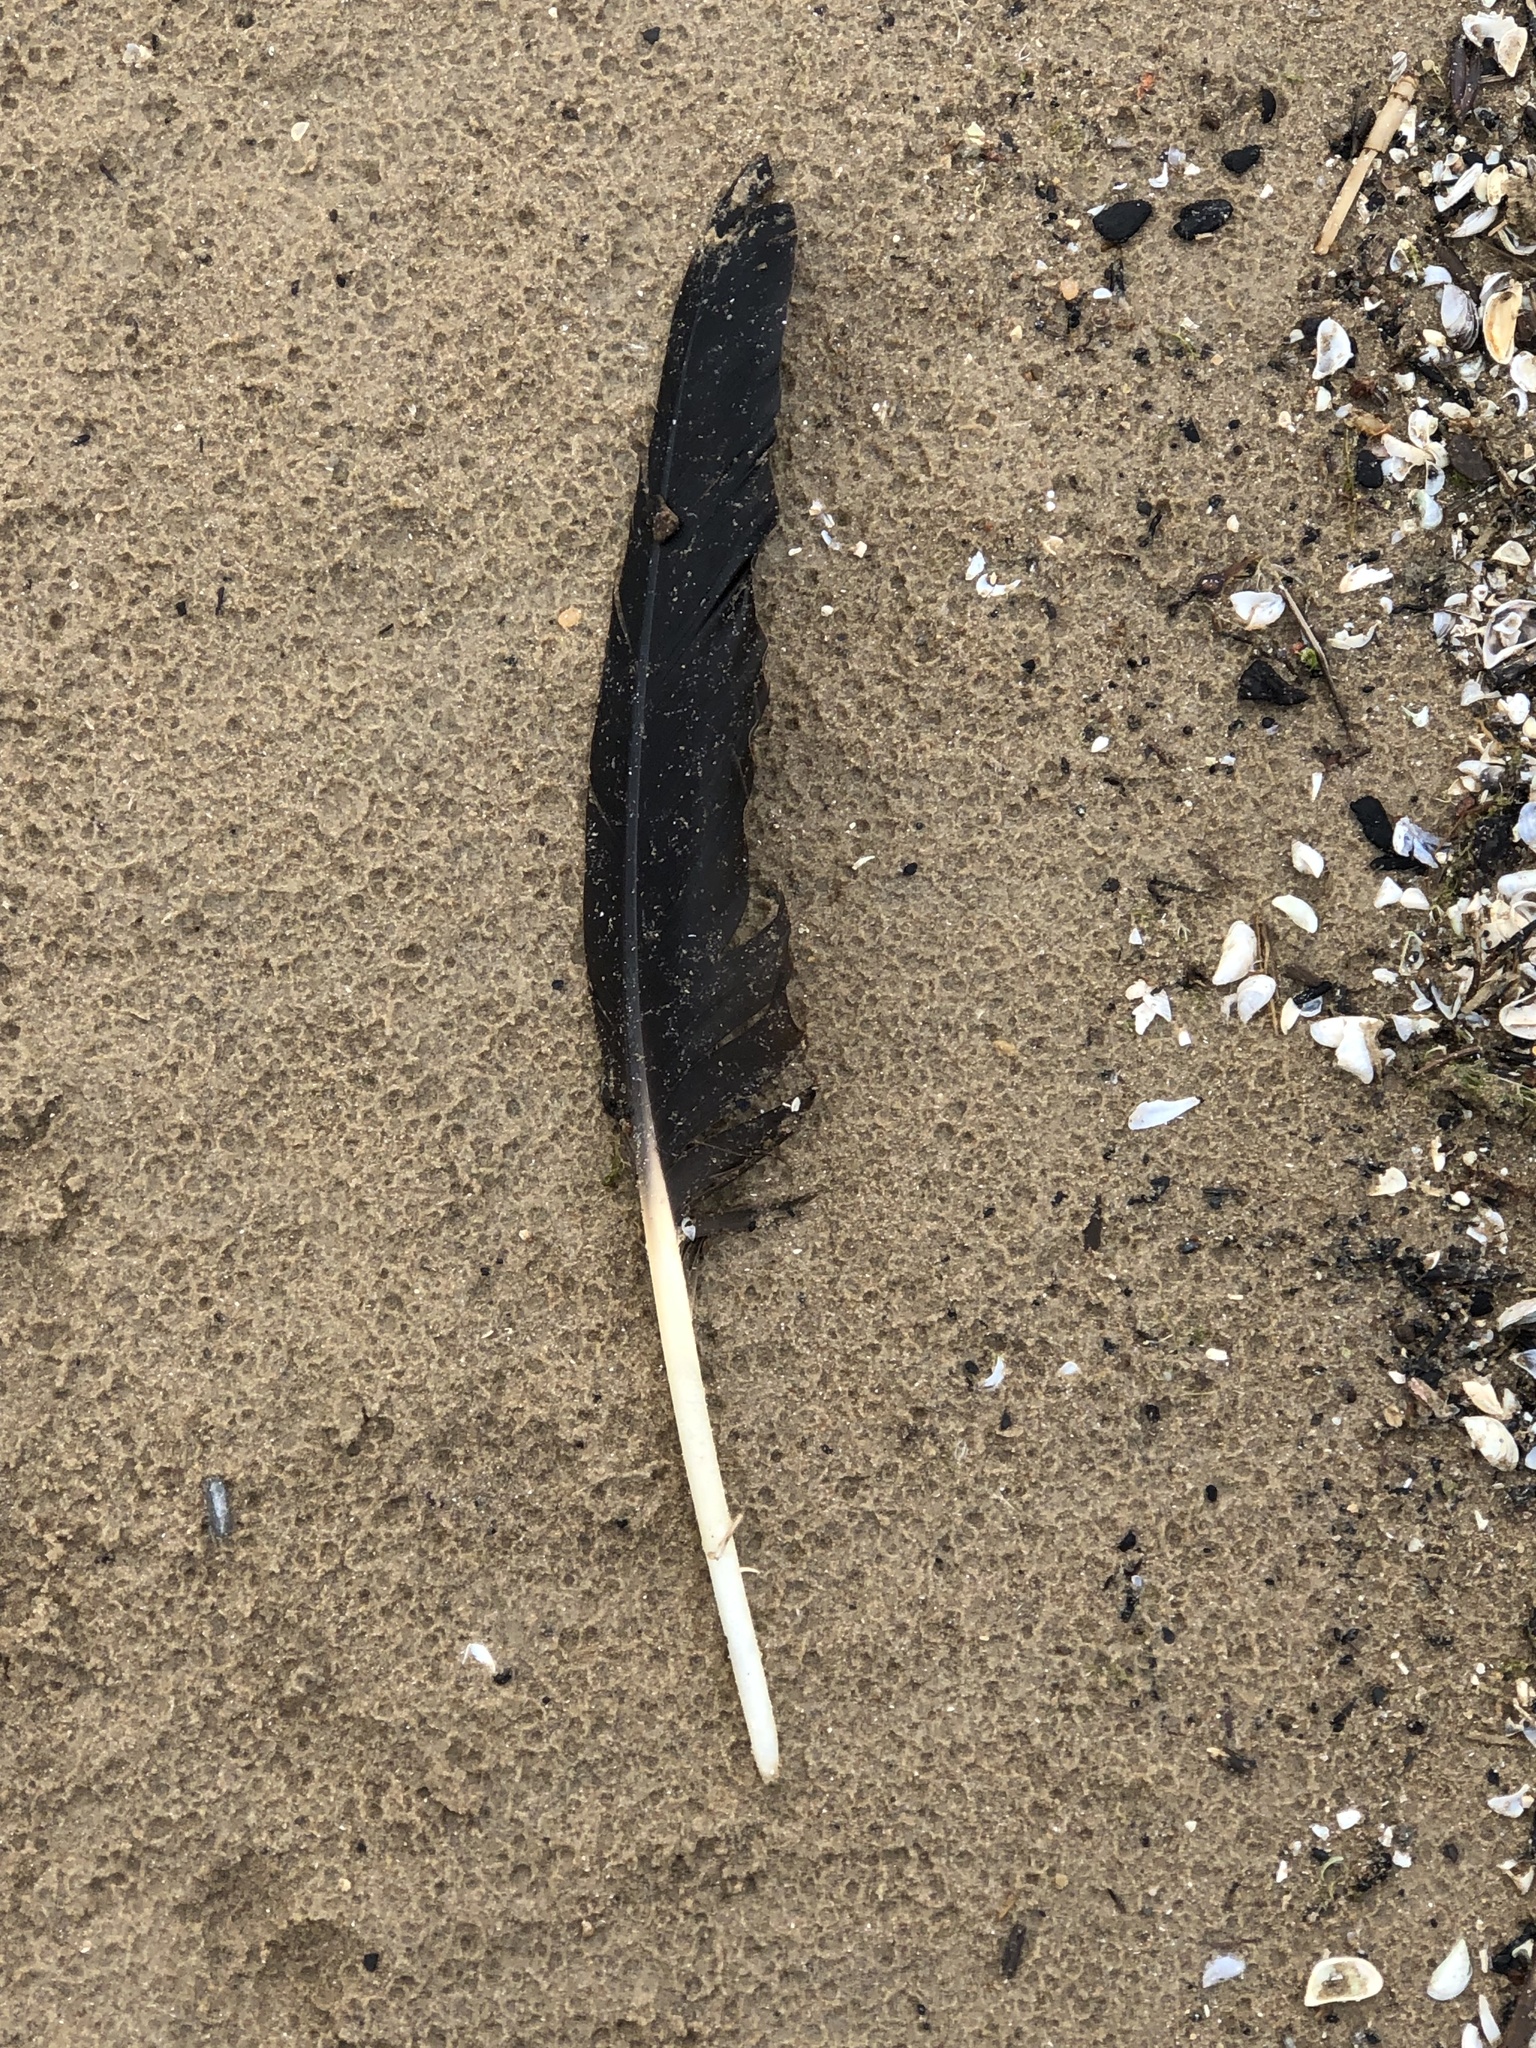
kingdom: Animalia
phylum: Chordata
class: Aves
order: Anseriformes
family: Anatidae
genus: Branta
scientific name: Branta canadensis
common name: Canada goose
